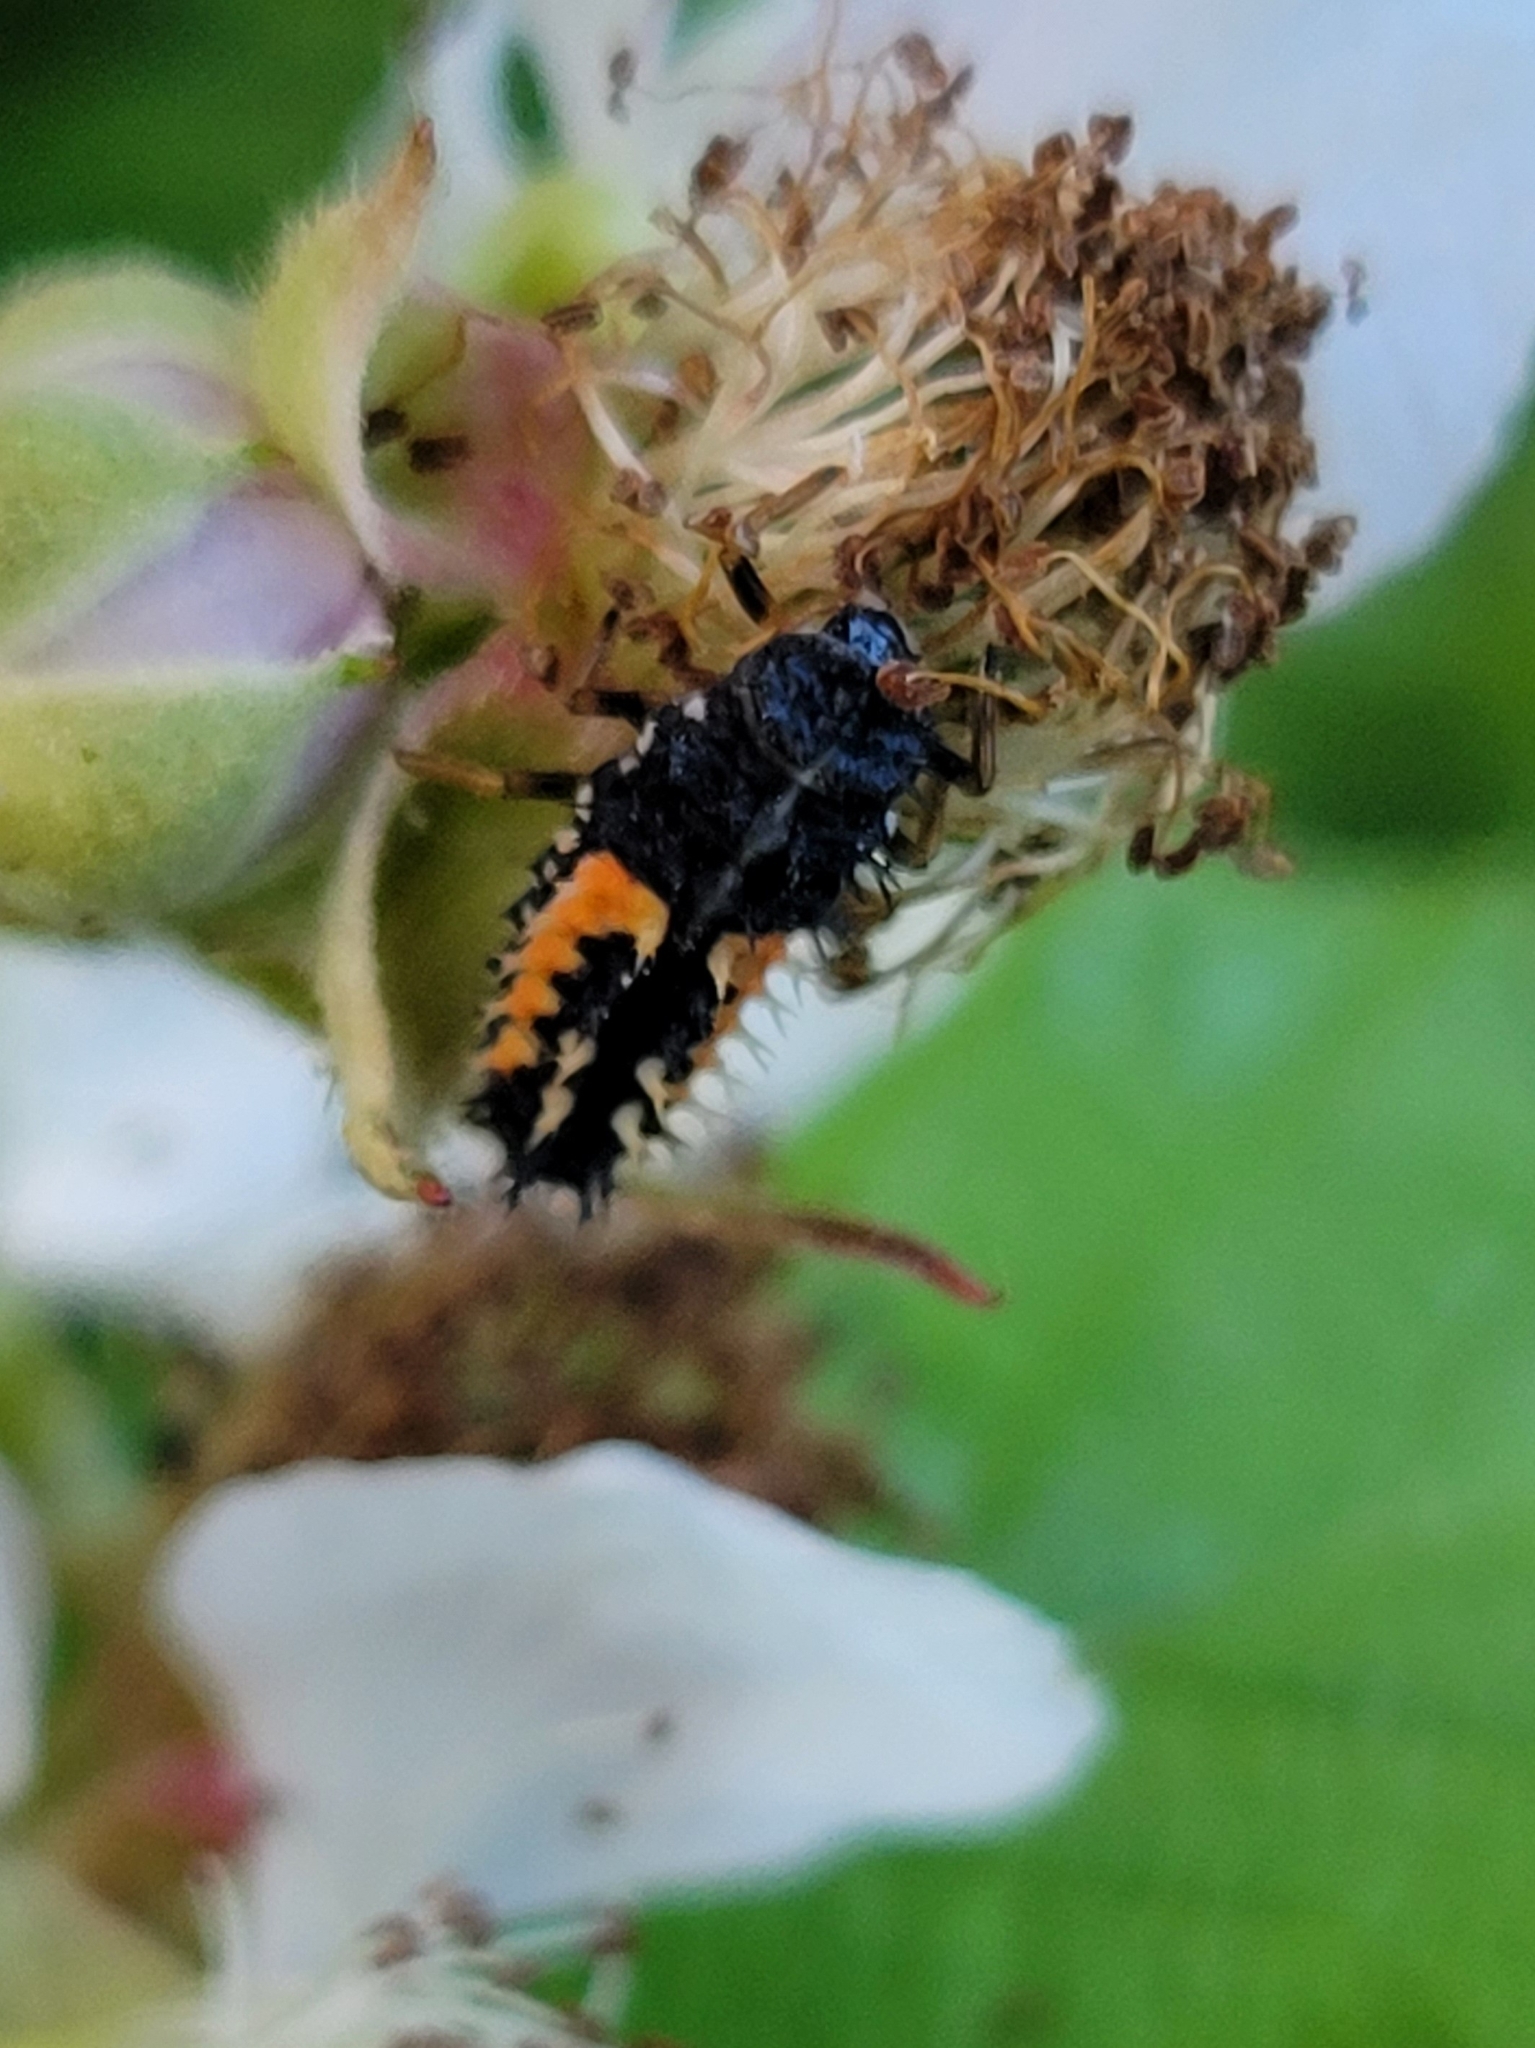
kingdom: Animalia
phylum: Arthropoda
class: Insecta
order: Coleoptera
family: Coccinellidae
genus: Harmonia
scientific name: Harmonia axyridis
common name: Harlequin ladybird
